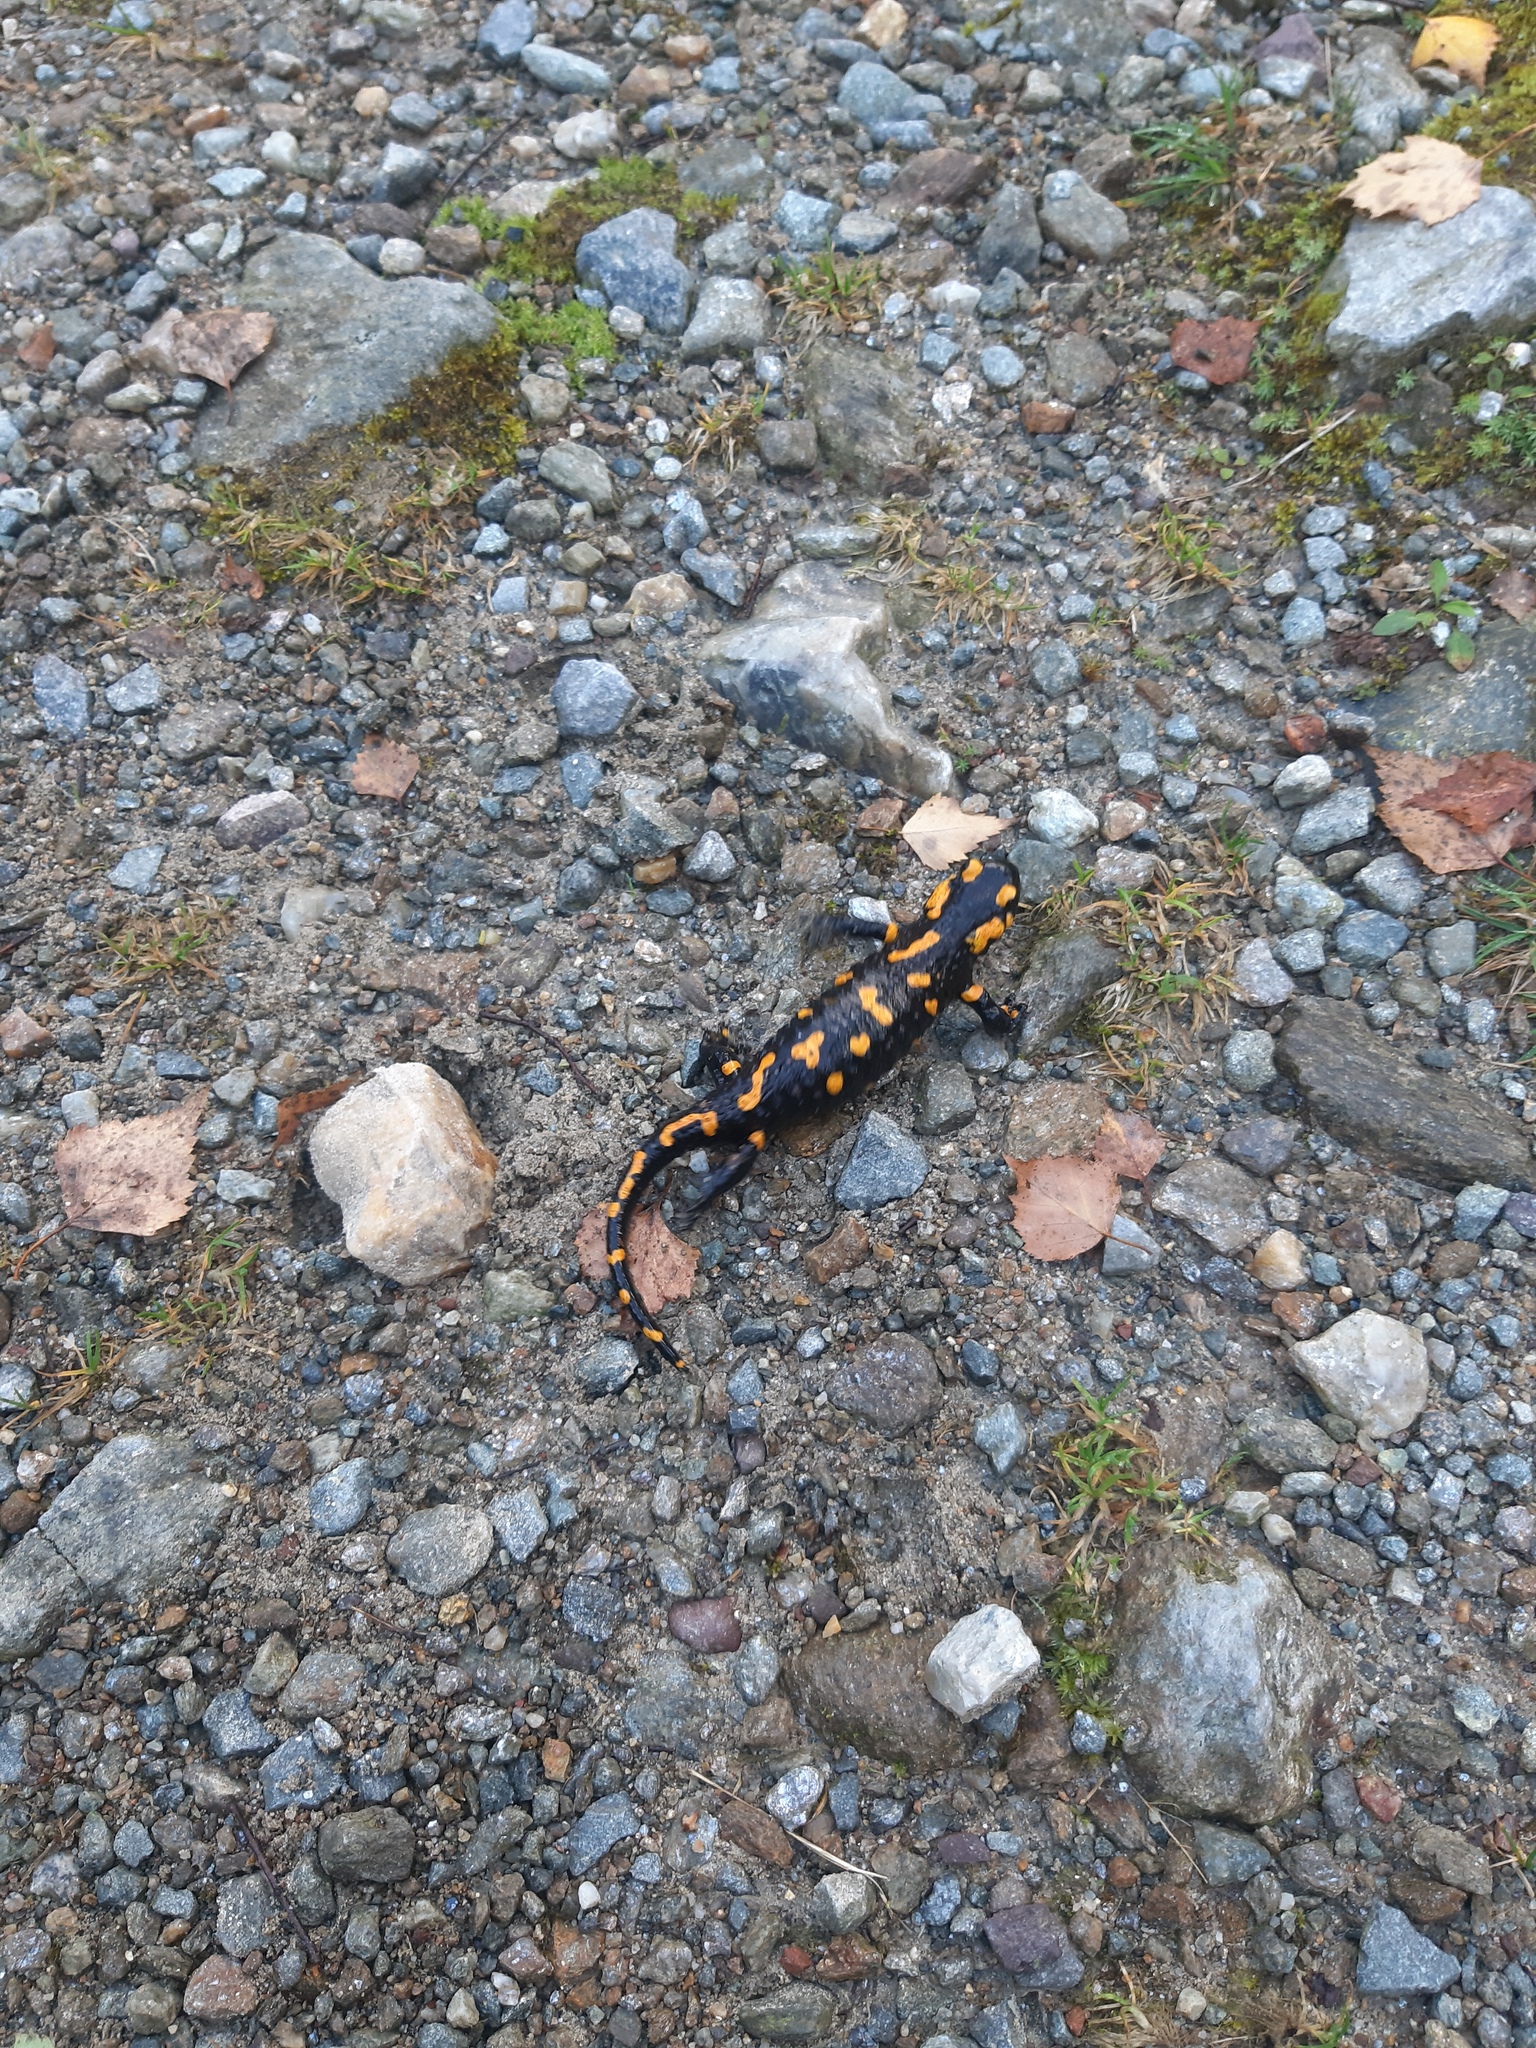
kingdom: Animalia
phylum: Chordata
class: Amphibia
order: Caudata
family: Salamandridae
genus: Salamandra
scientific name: Salamandra salamandra
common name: Fire salamander
